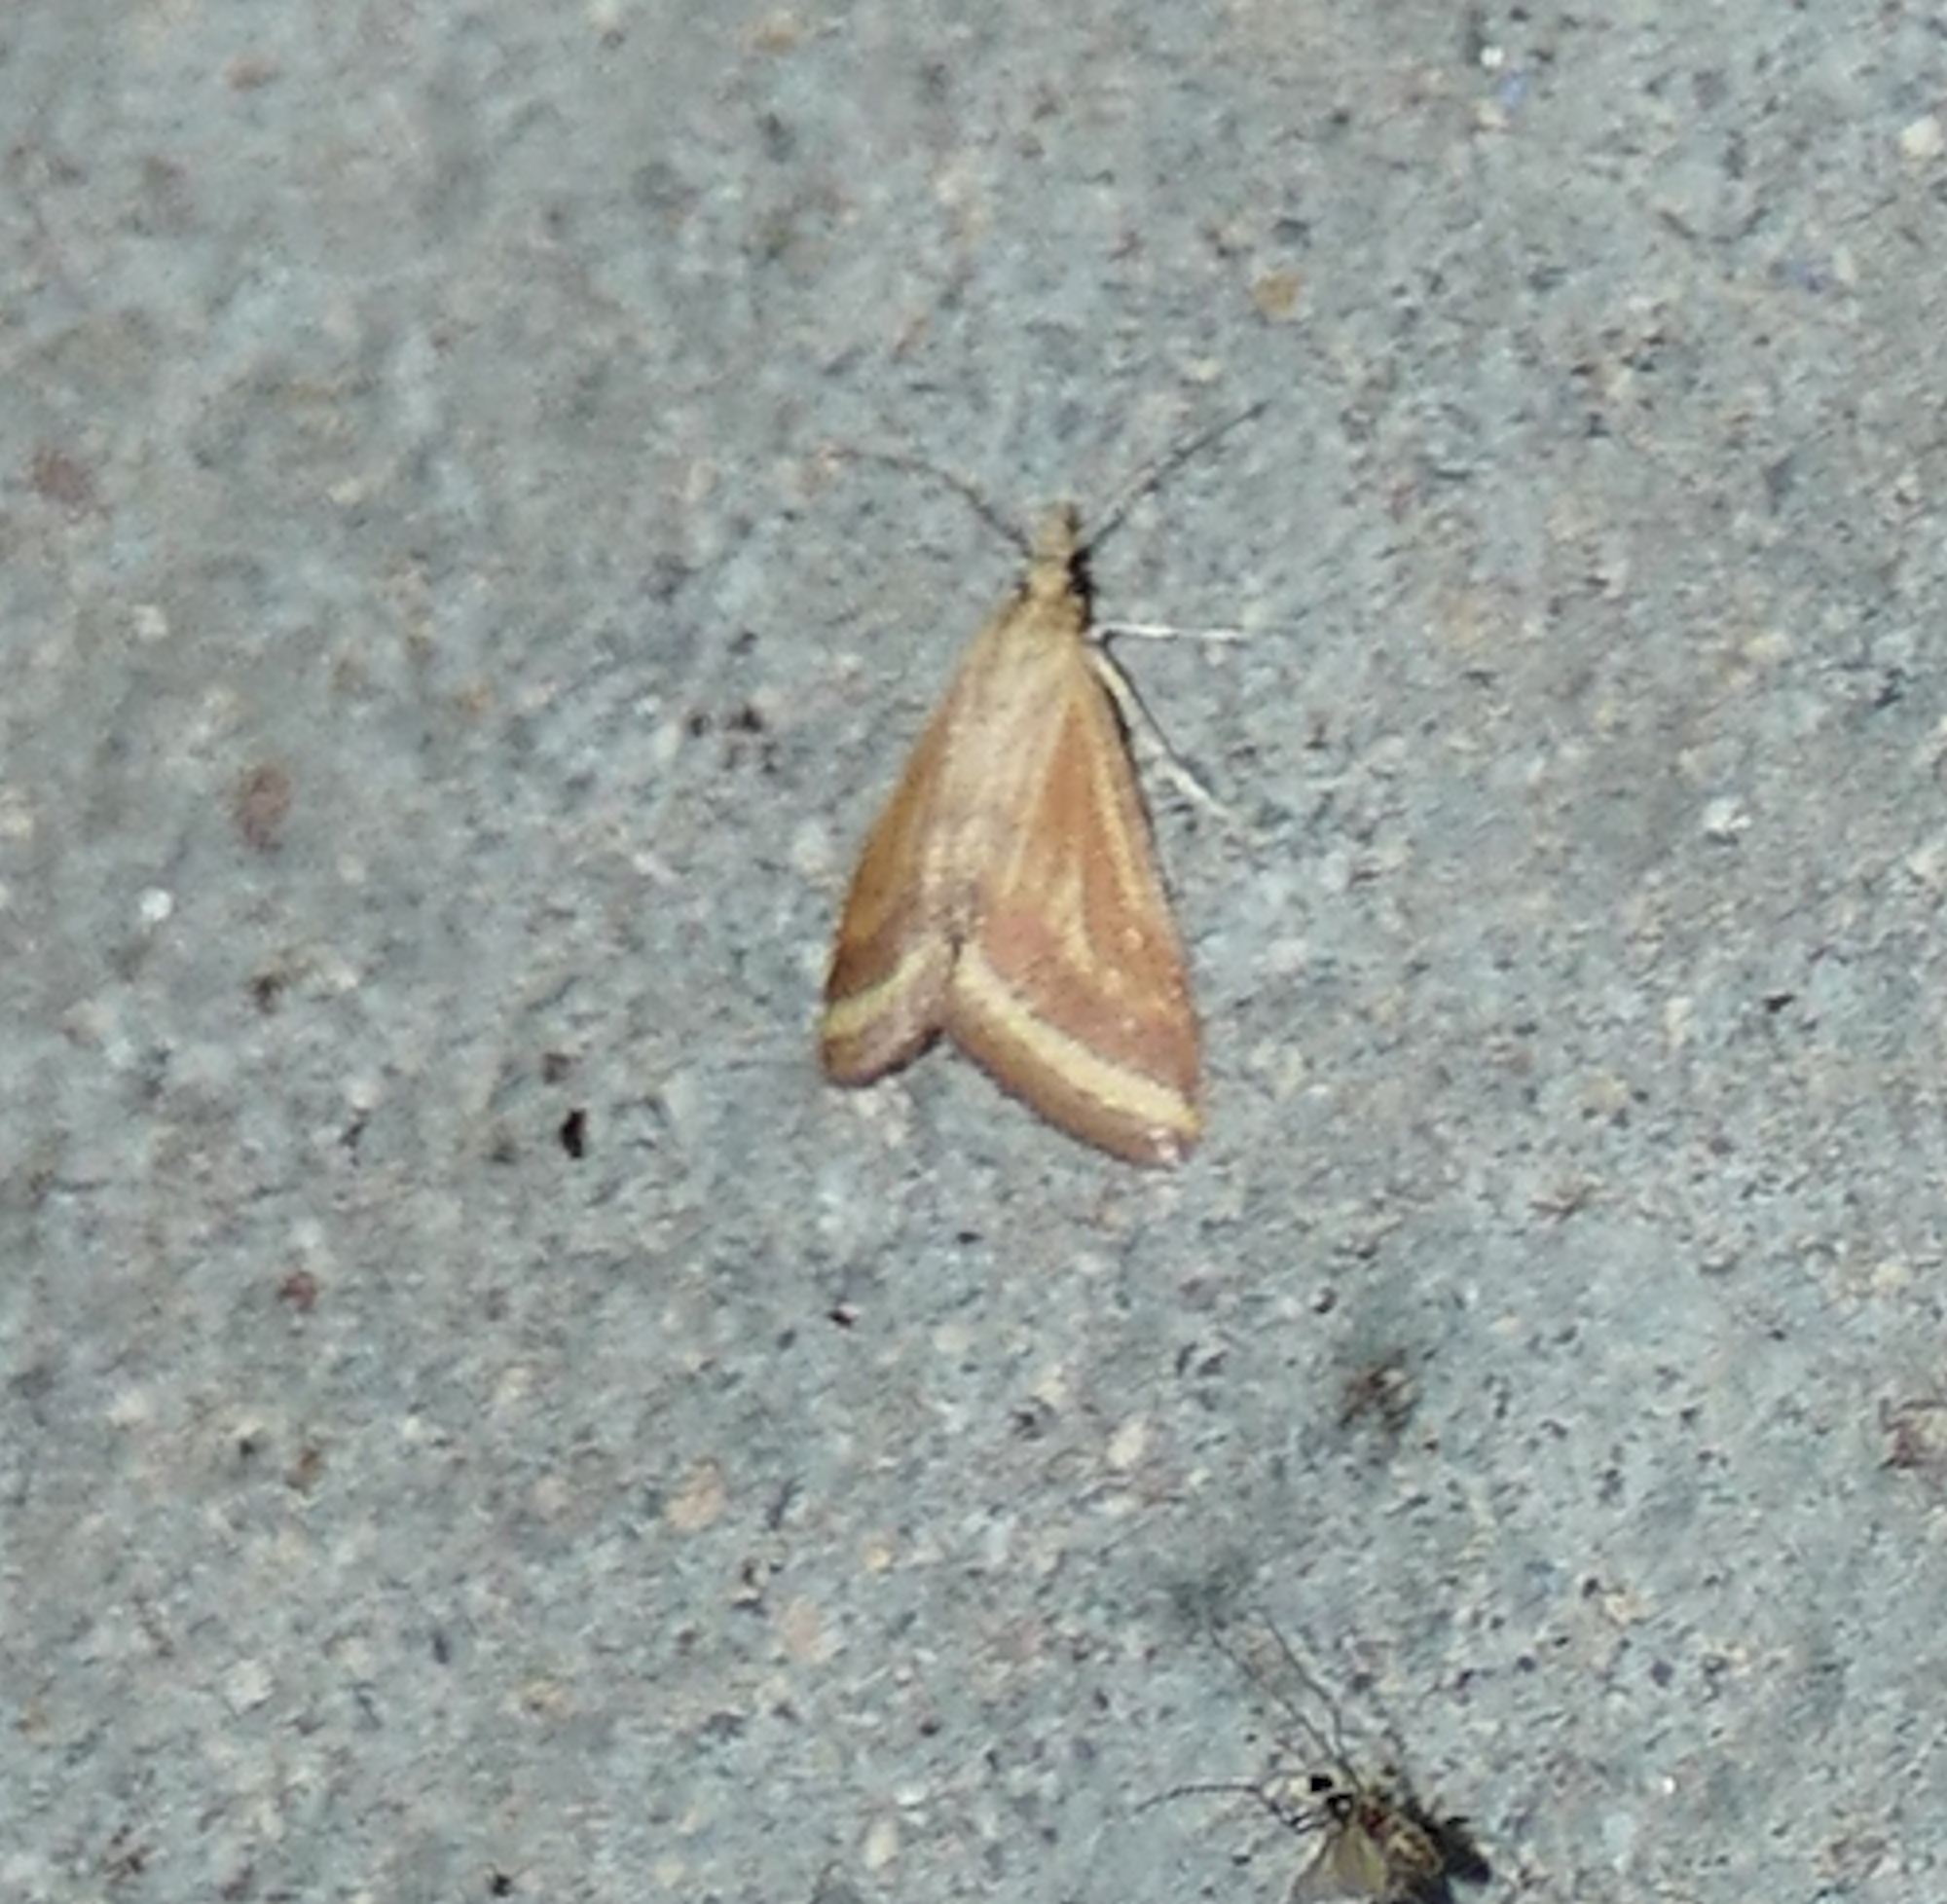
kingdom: Animalia
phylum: Arthropoda
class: Insecta
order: Lepidoptera
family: Crambidae
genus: Microtheoris
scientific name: Microtheoris ophionalis
